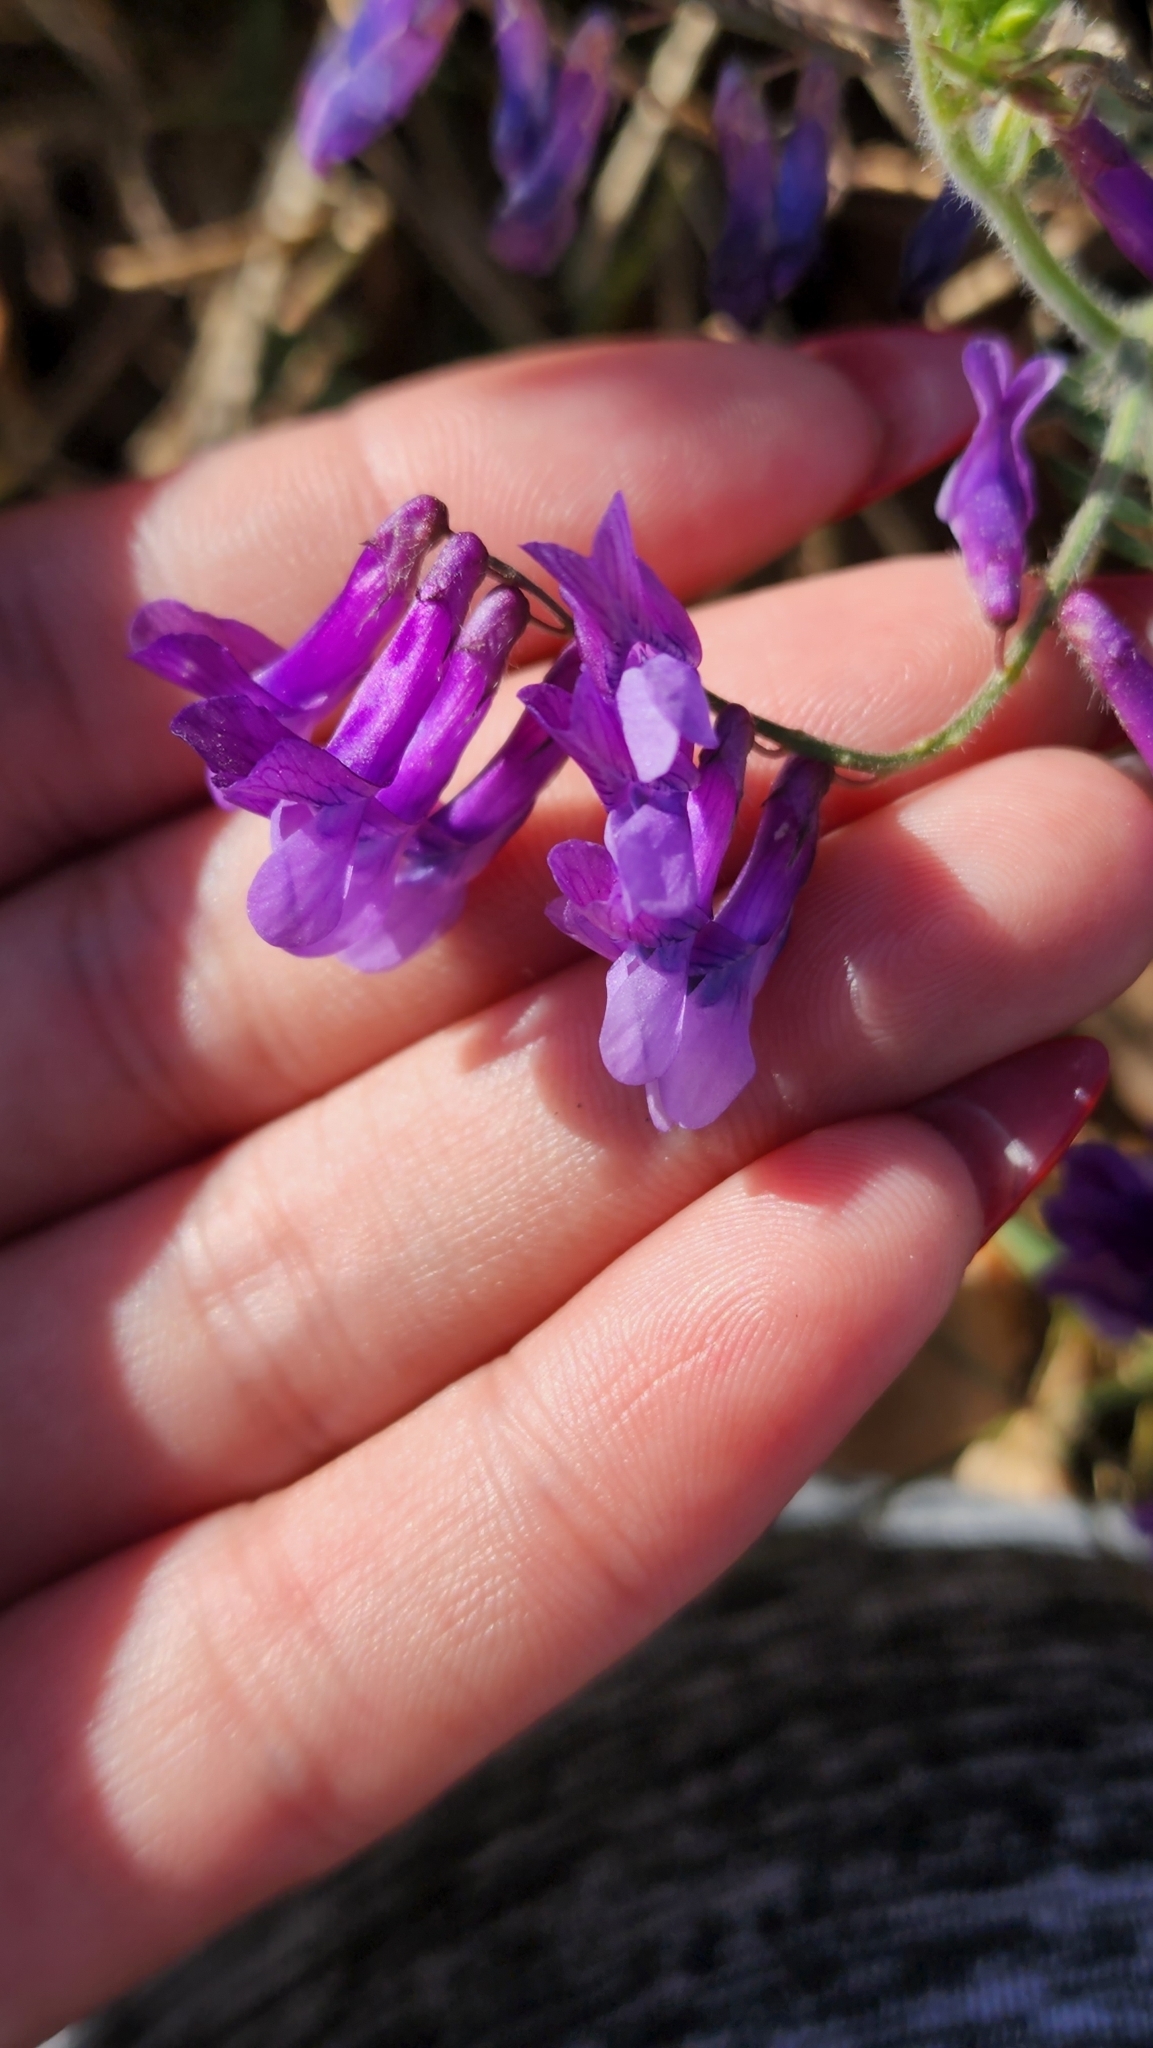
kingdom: Plantae
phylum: Tracheophyta
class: Magnoliopsida
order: Fabales
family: Fabaceae
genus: Vicia
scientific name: Vicia villosa
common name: Fodder vetch
